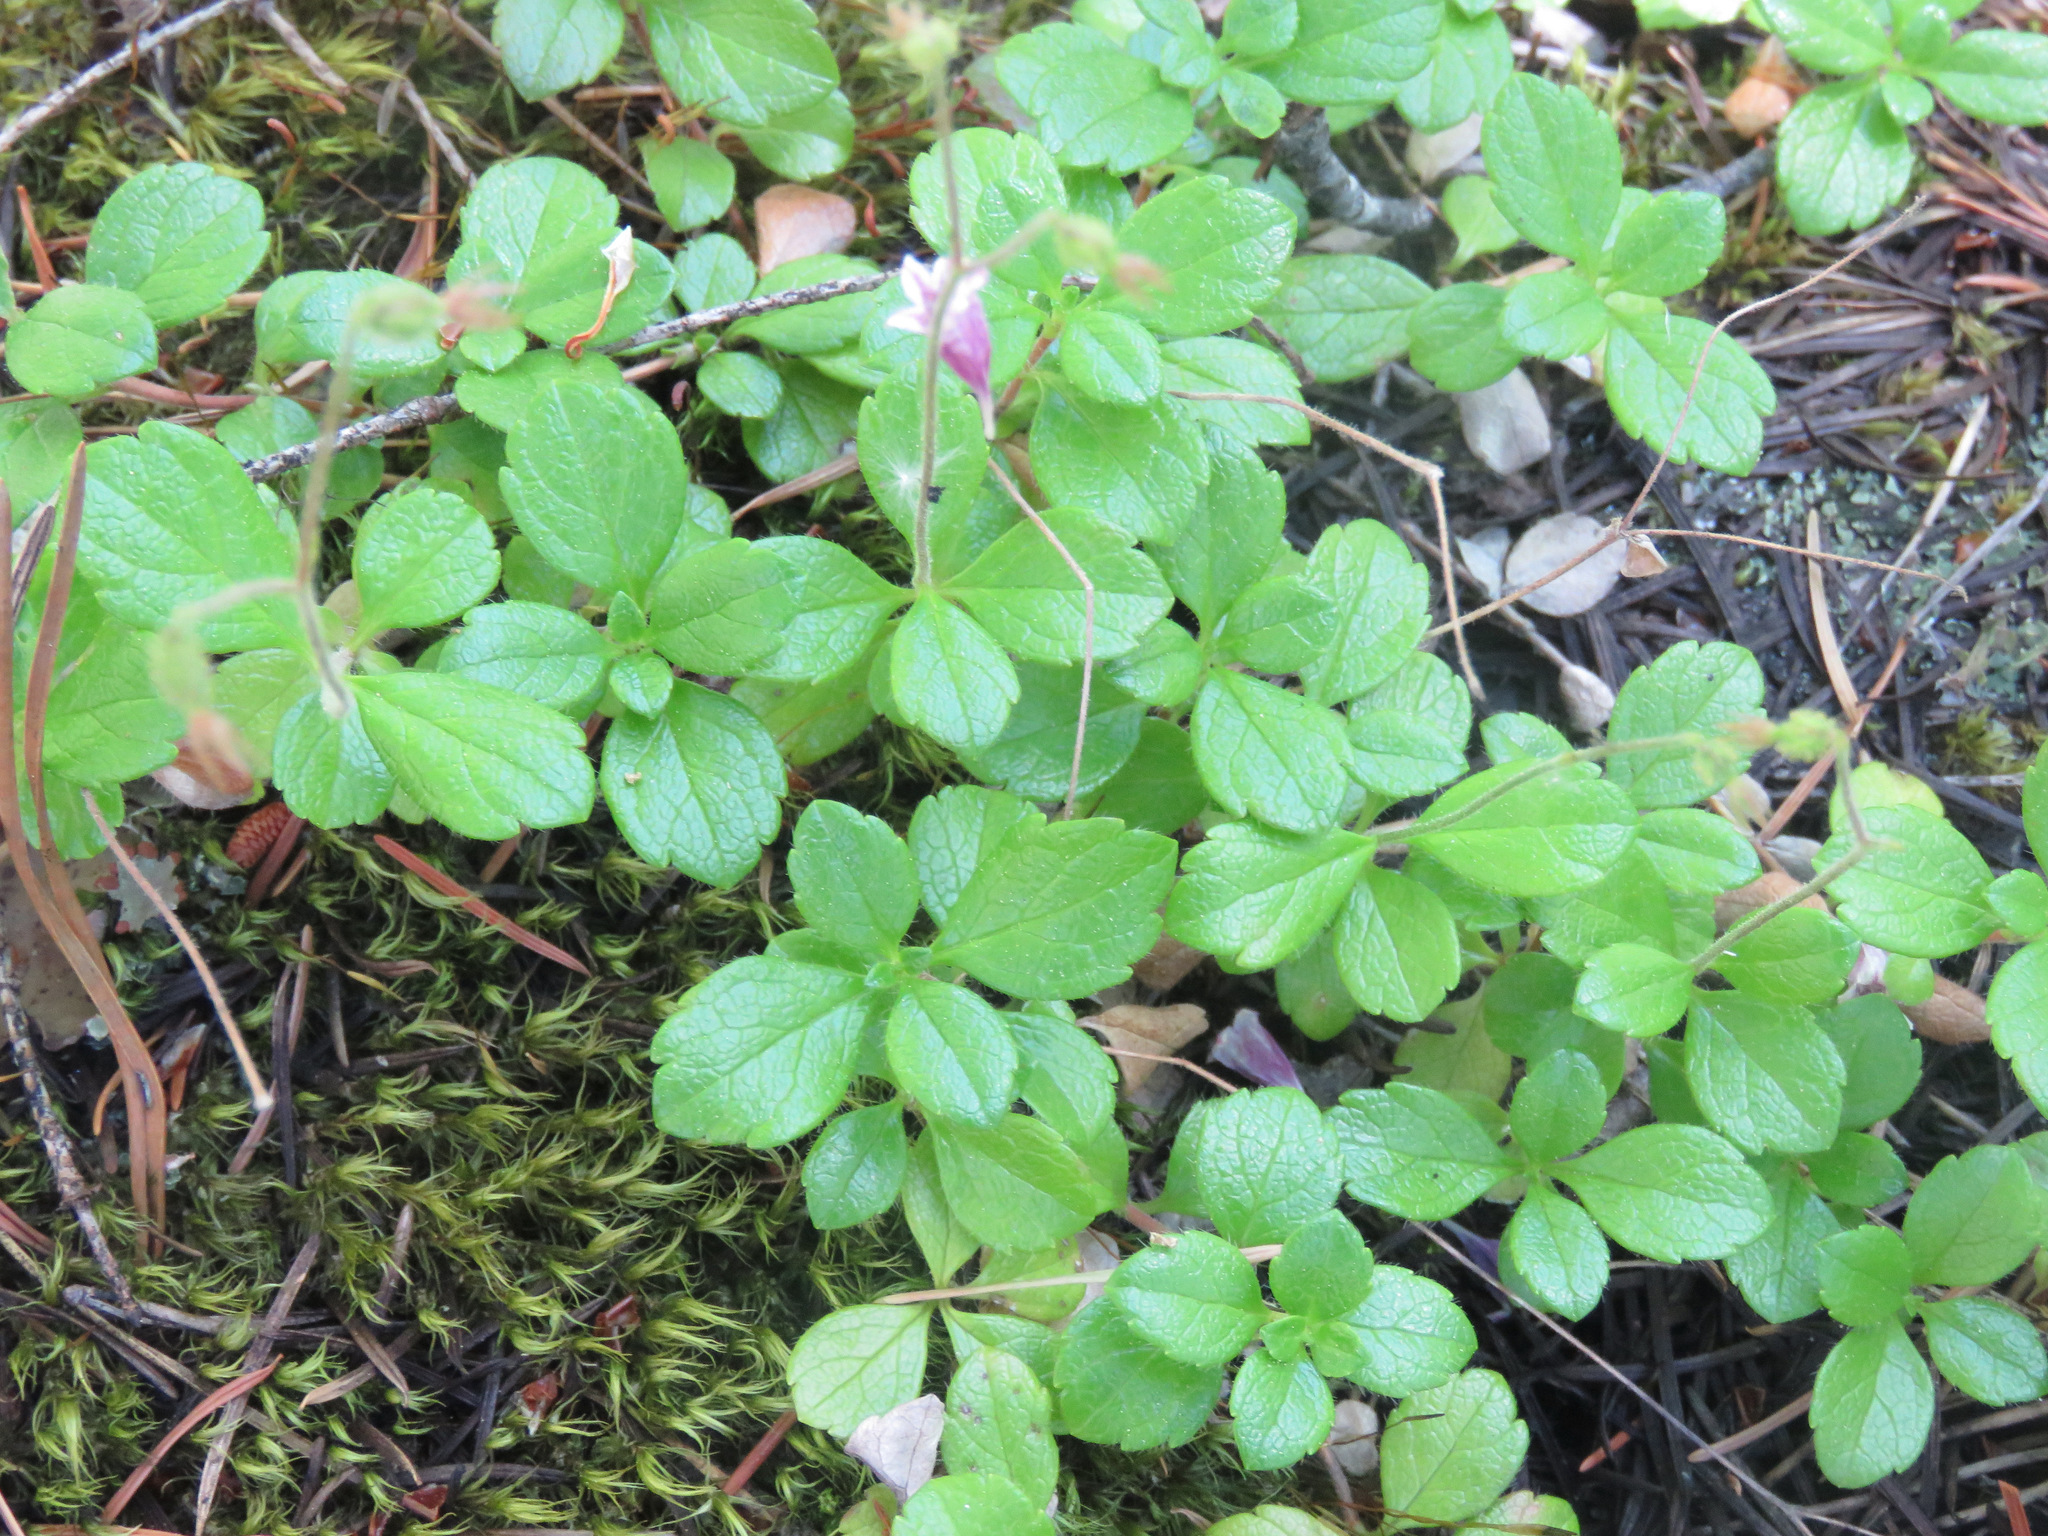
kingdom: Plantae
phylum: Tracheophyta
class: Magnoliopsida
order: Dipsacales
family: Caprifoliaceae
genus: Linnaea
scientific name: Linnaea borealis
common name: Twinflower
